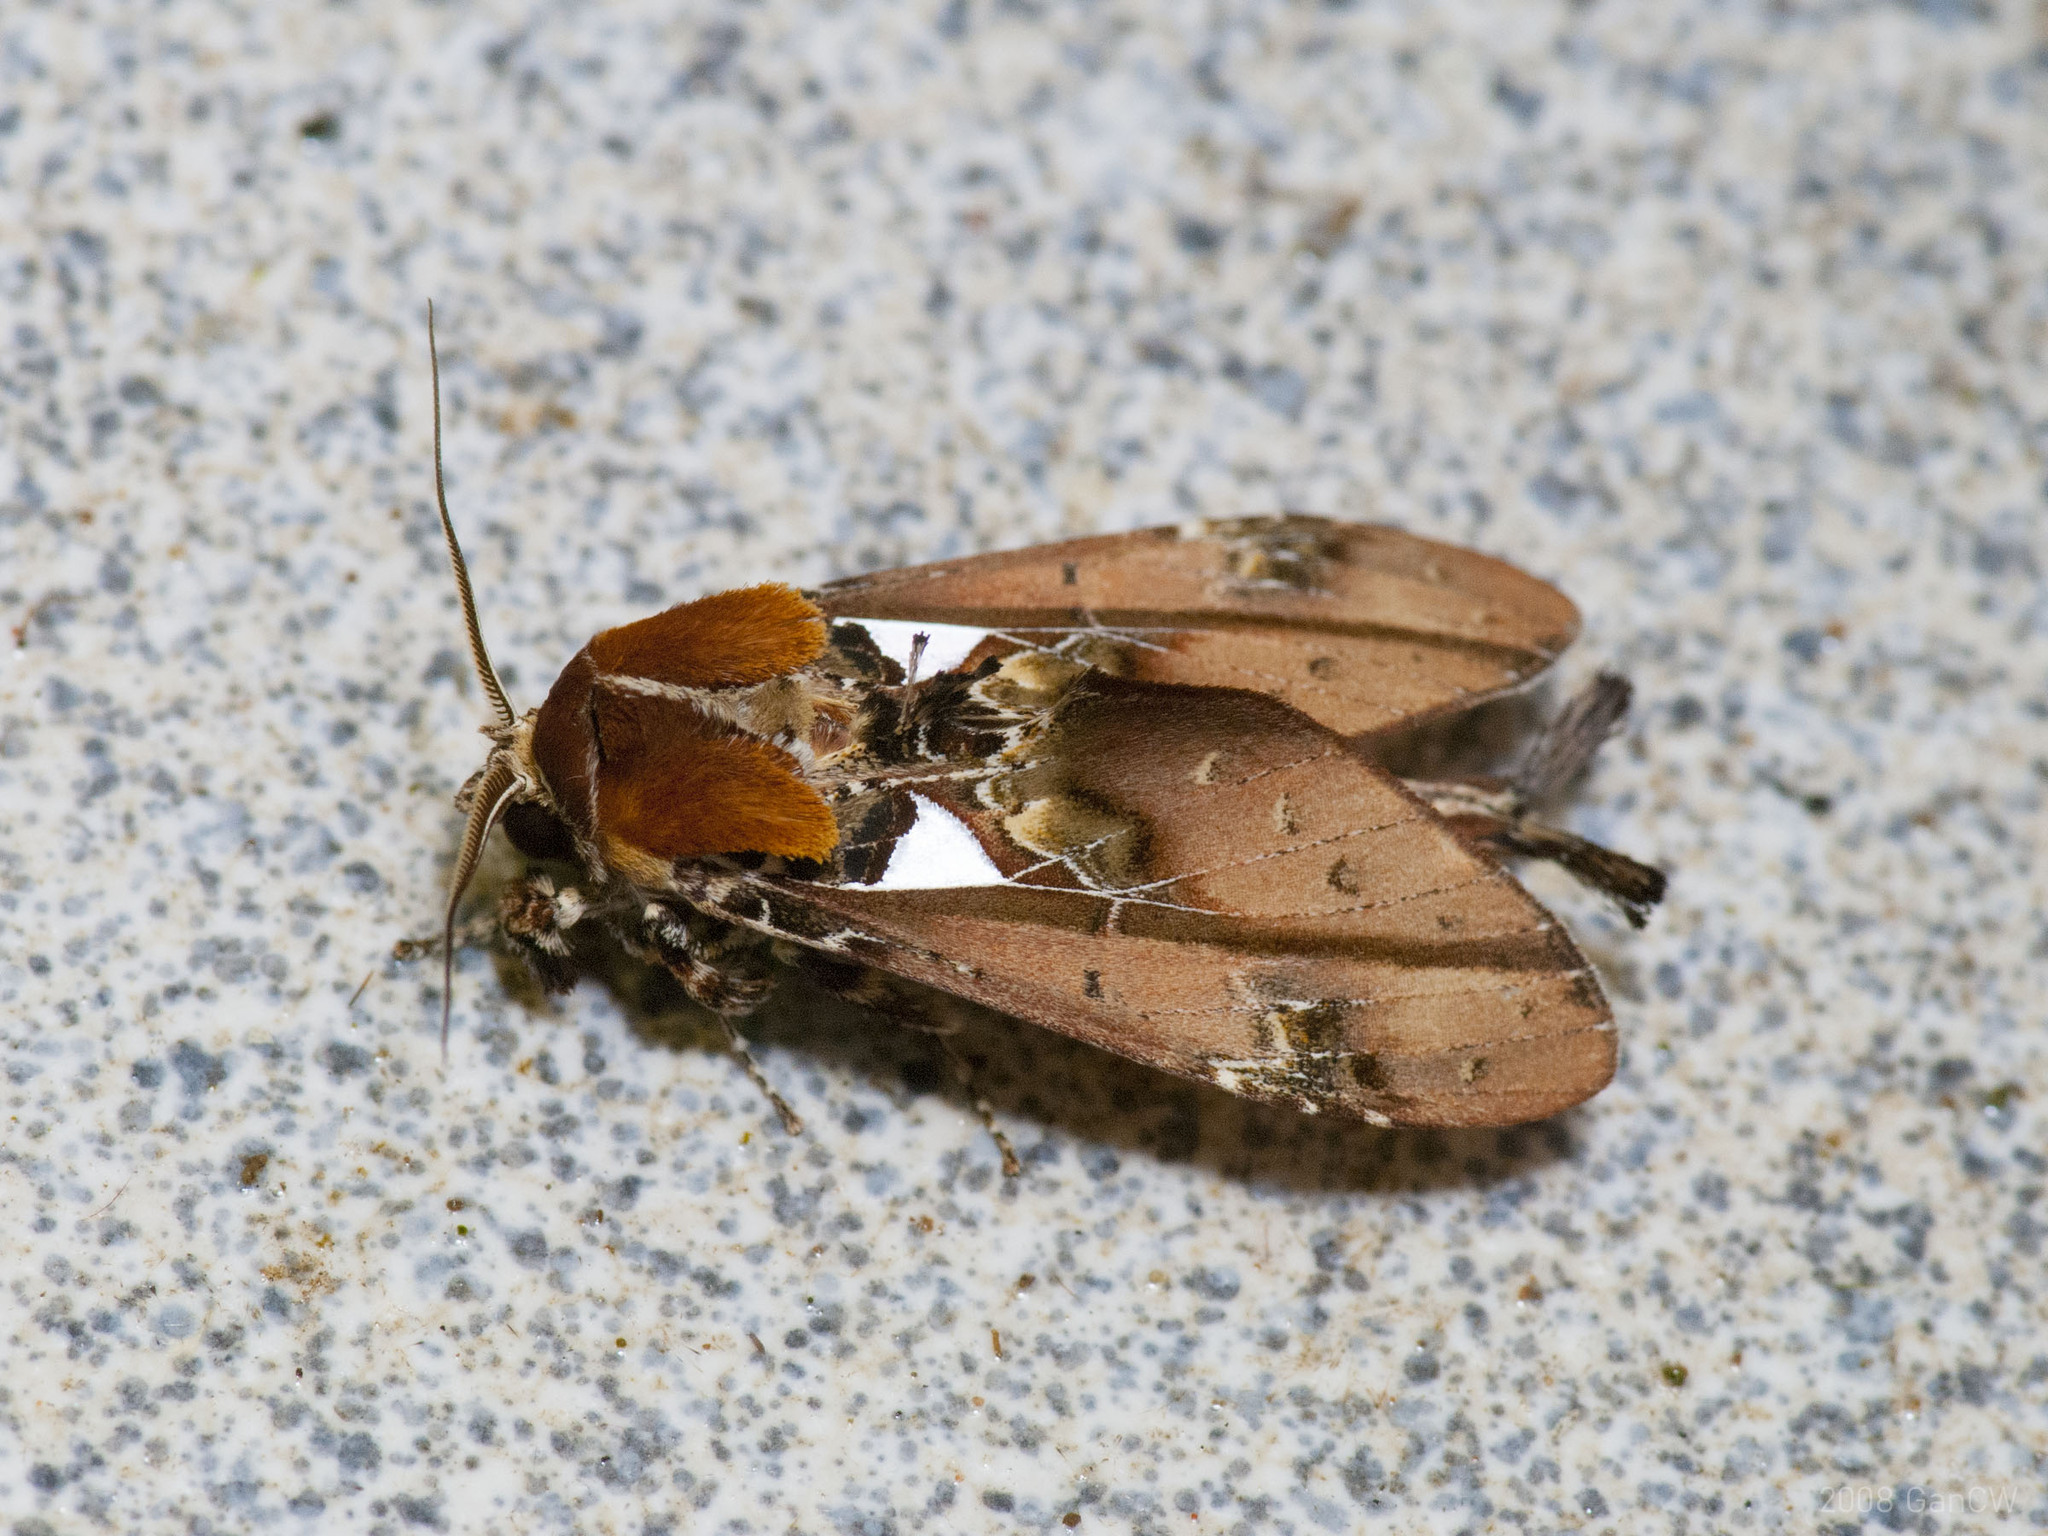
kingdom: Animalia
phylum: Arthropoda
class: Insecta
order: Lepidoptera
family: Notodontidae
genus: Ginshachia
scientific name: Ginshachia bronacha
